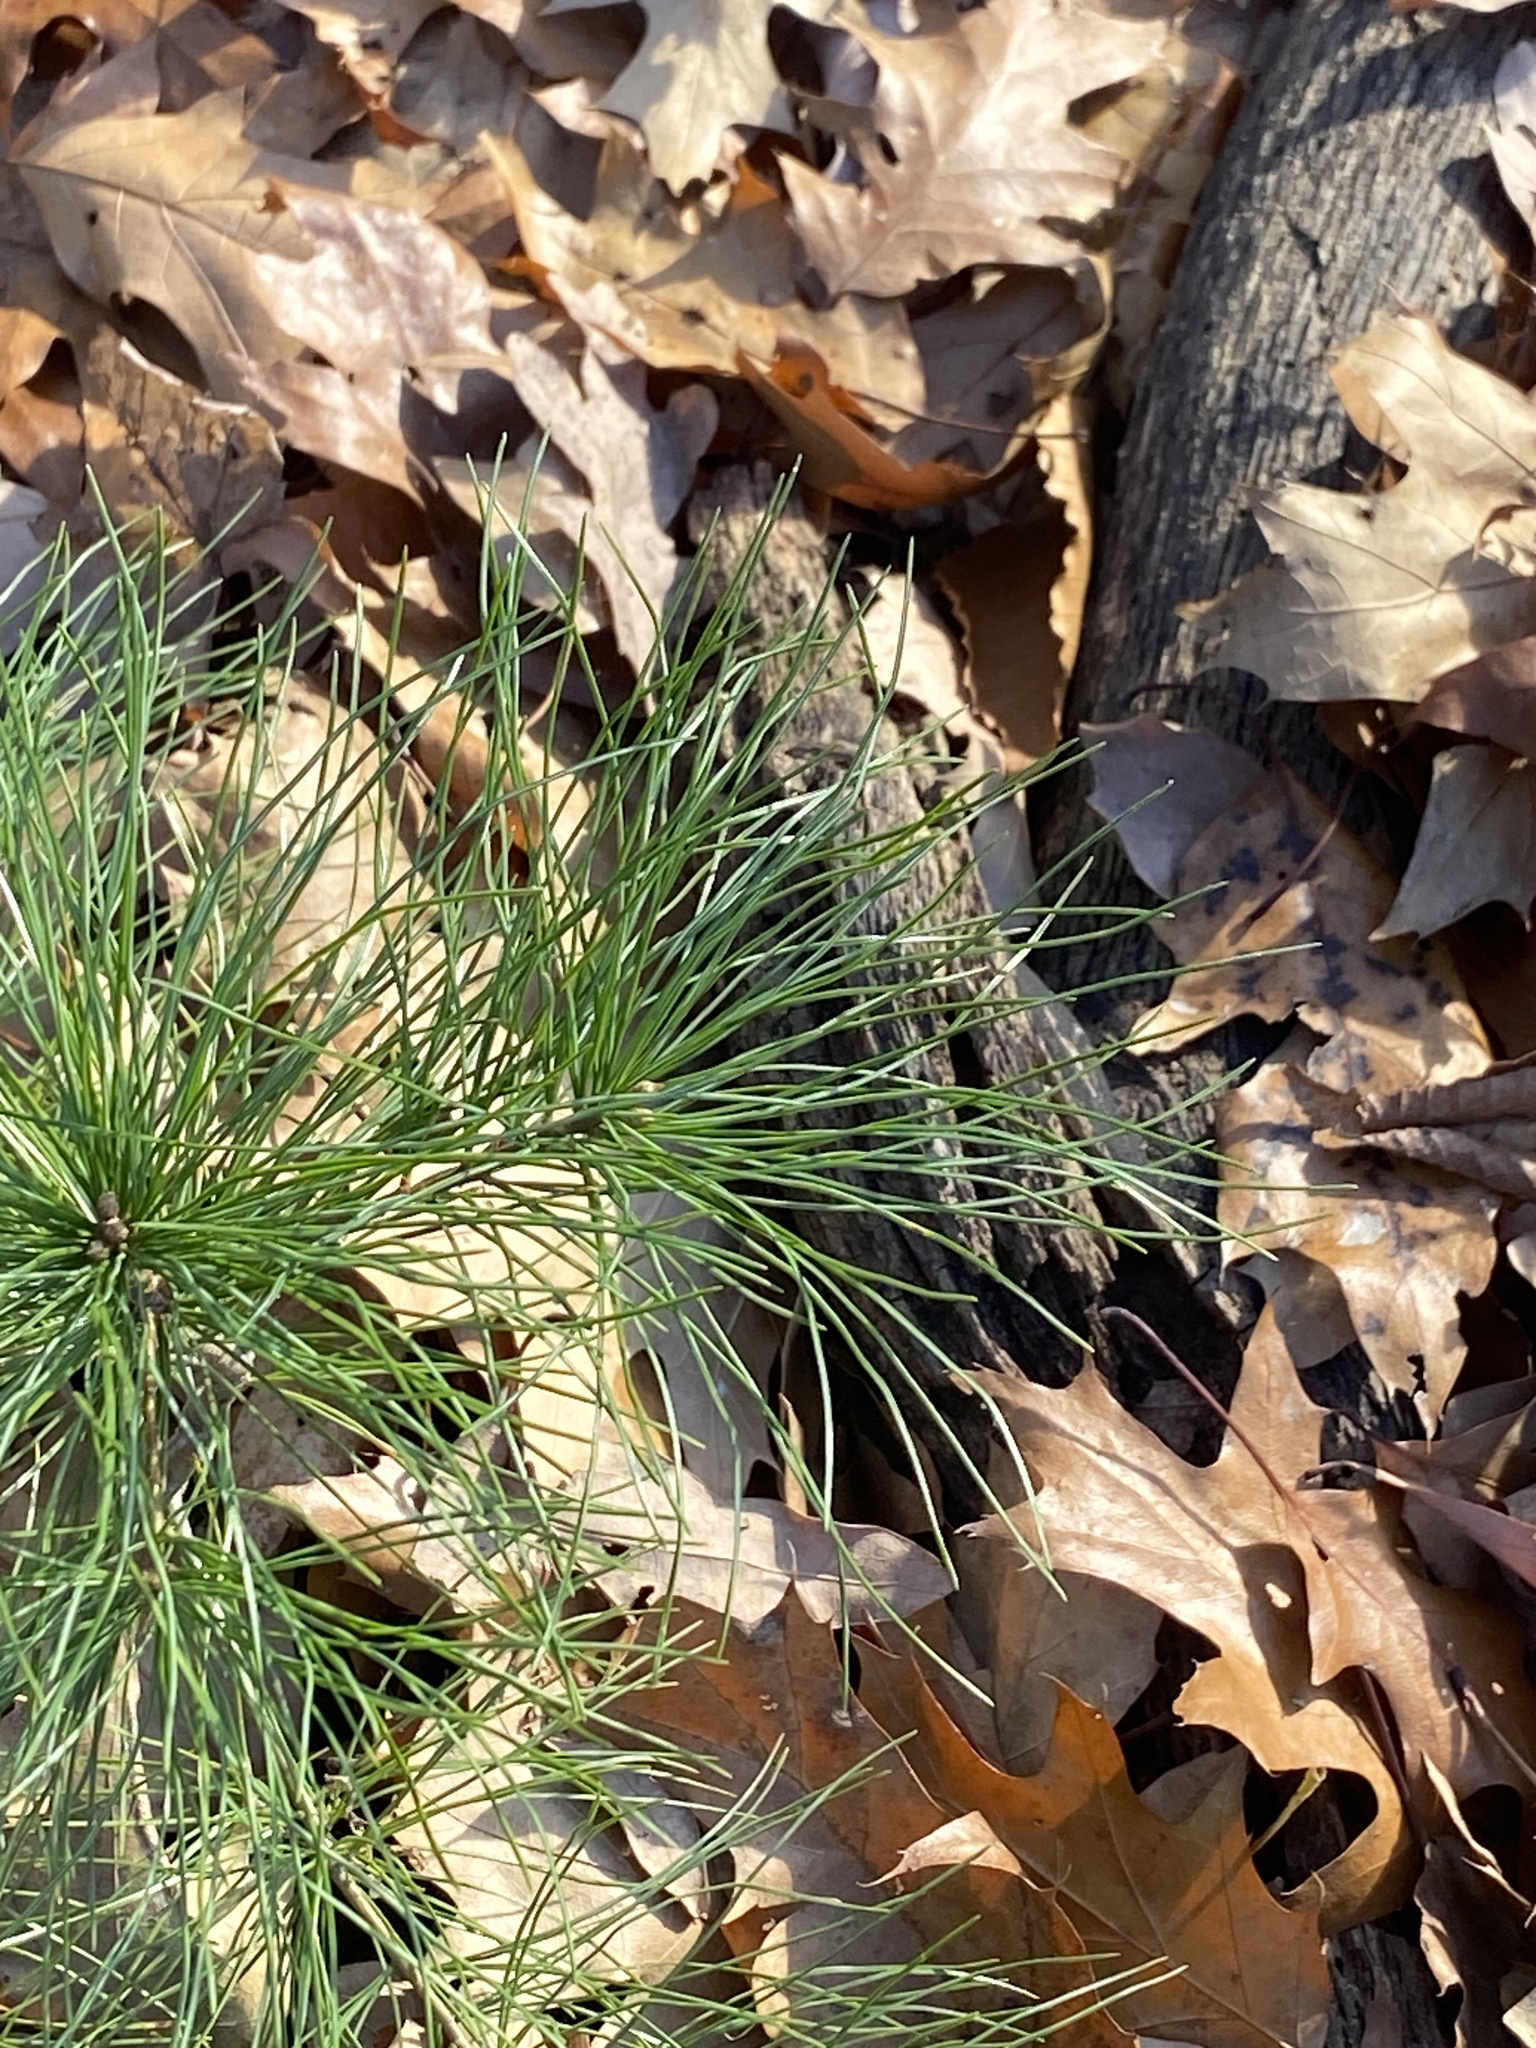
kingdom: Plantae
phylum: Tracheophyta
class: Pinopsida
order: Pinales
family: Pinaceae
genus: Pinus
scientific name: Pinus strobus
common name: Weymouth pine
